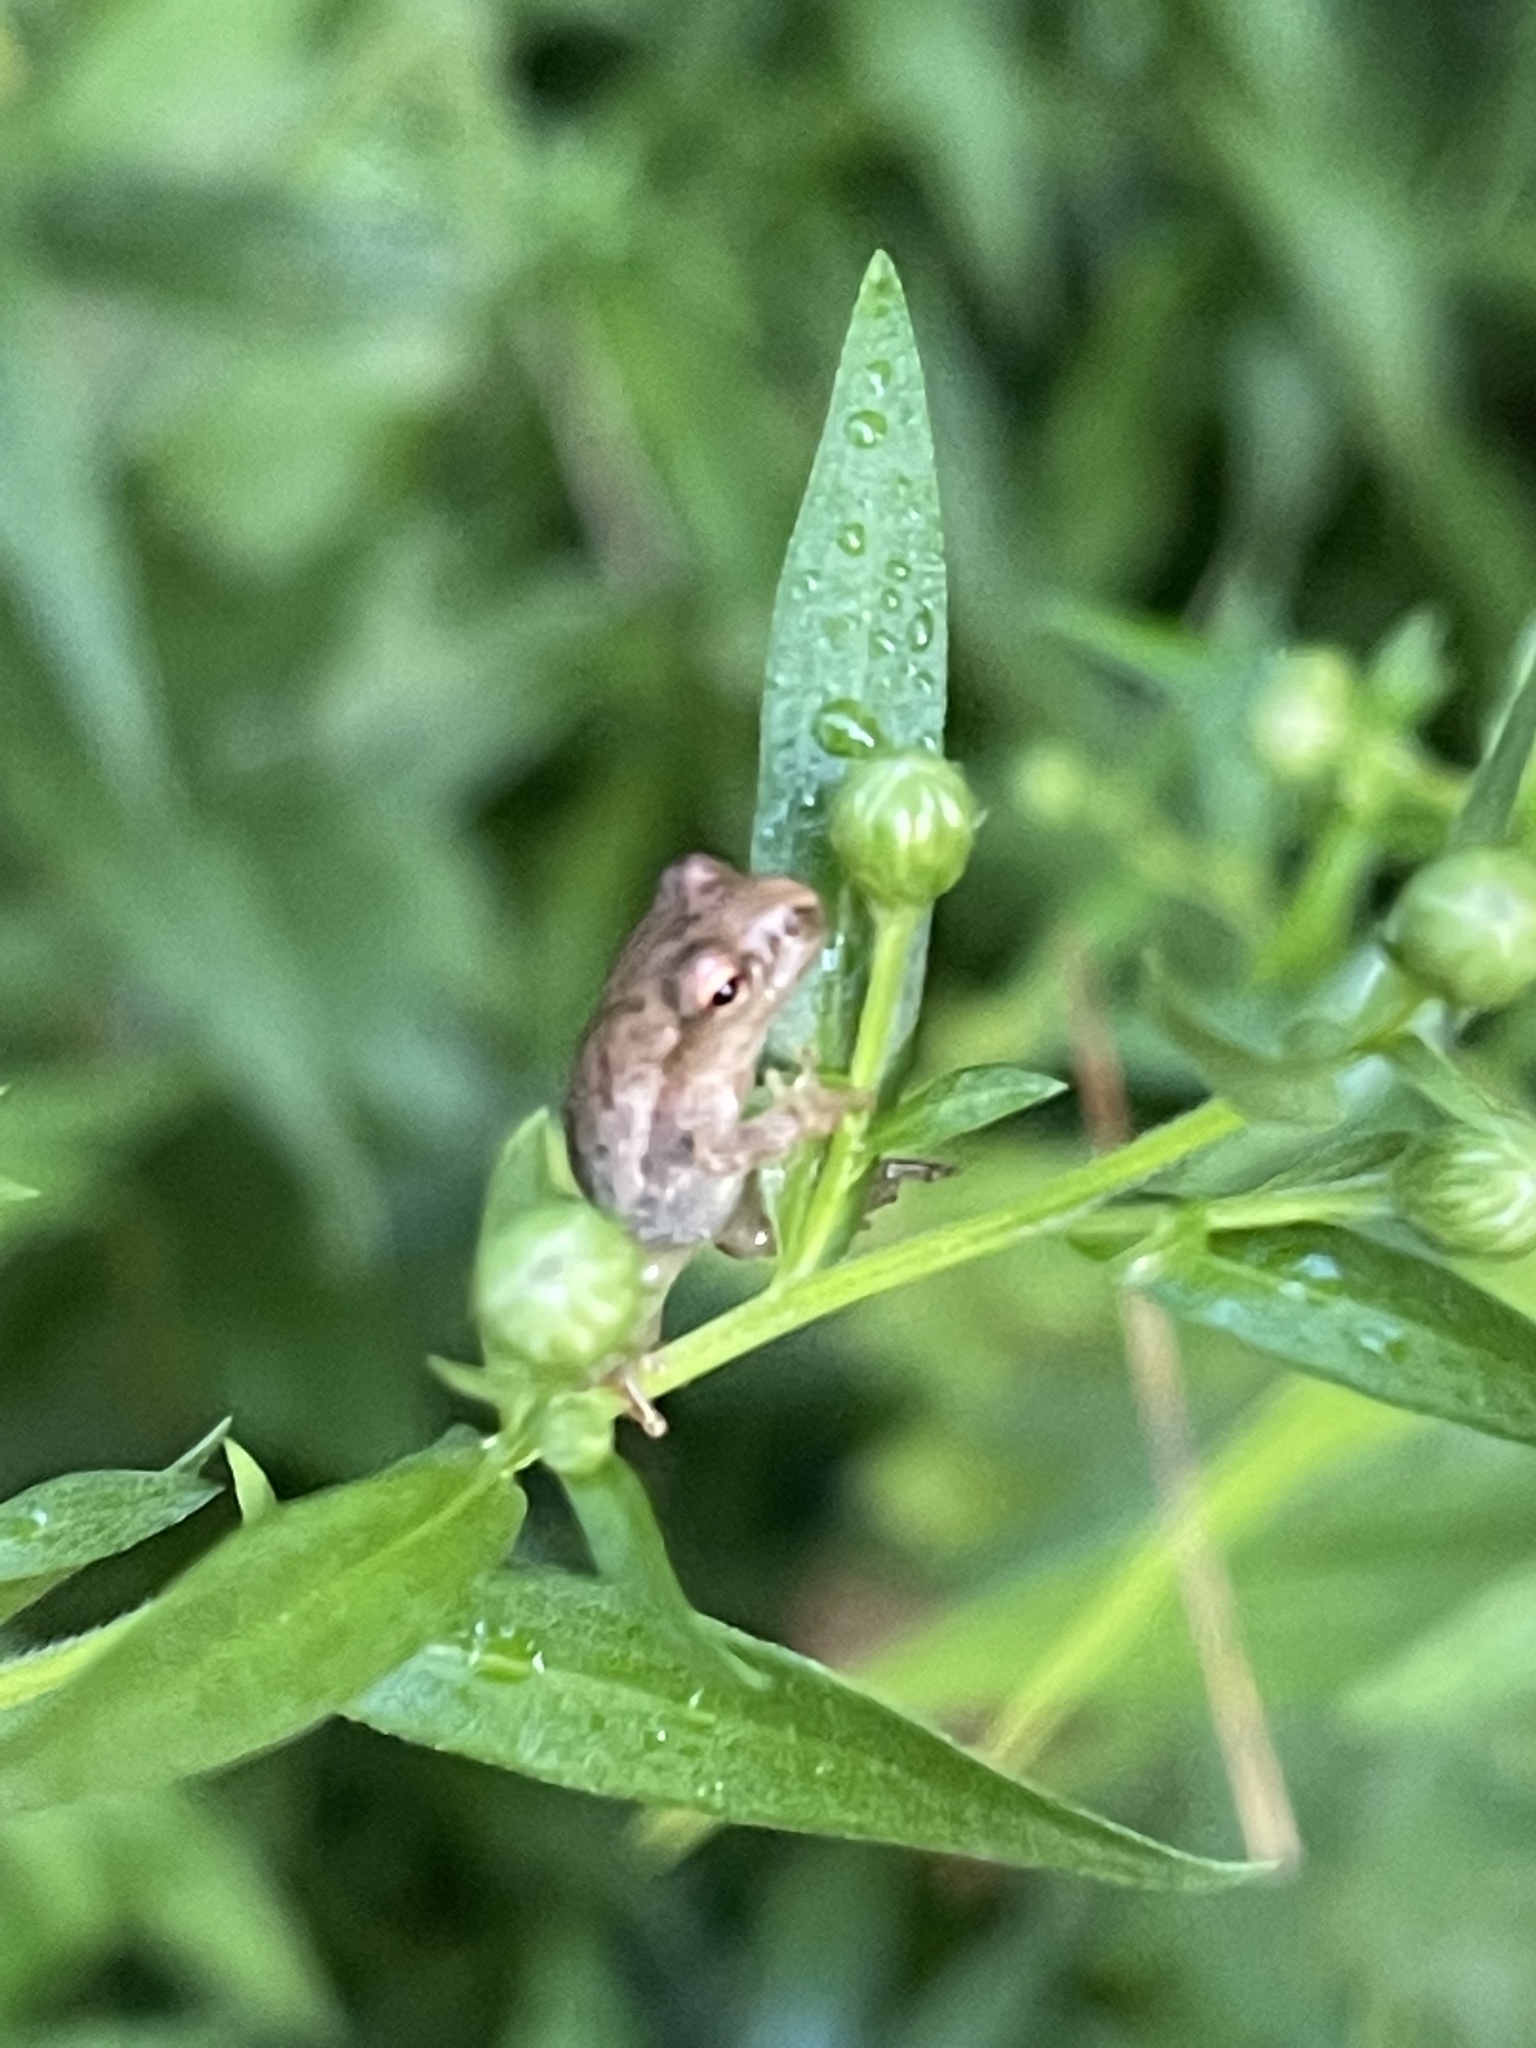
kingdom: Animalia
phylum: Chordata
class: Amphibia
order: Anura
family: Hylidae
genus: Pseudacris
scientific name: Pseudacris crucifer
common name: Spring peeper
